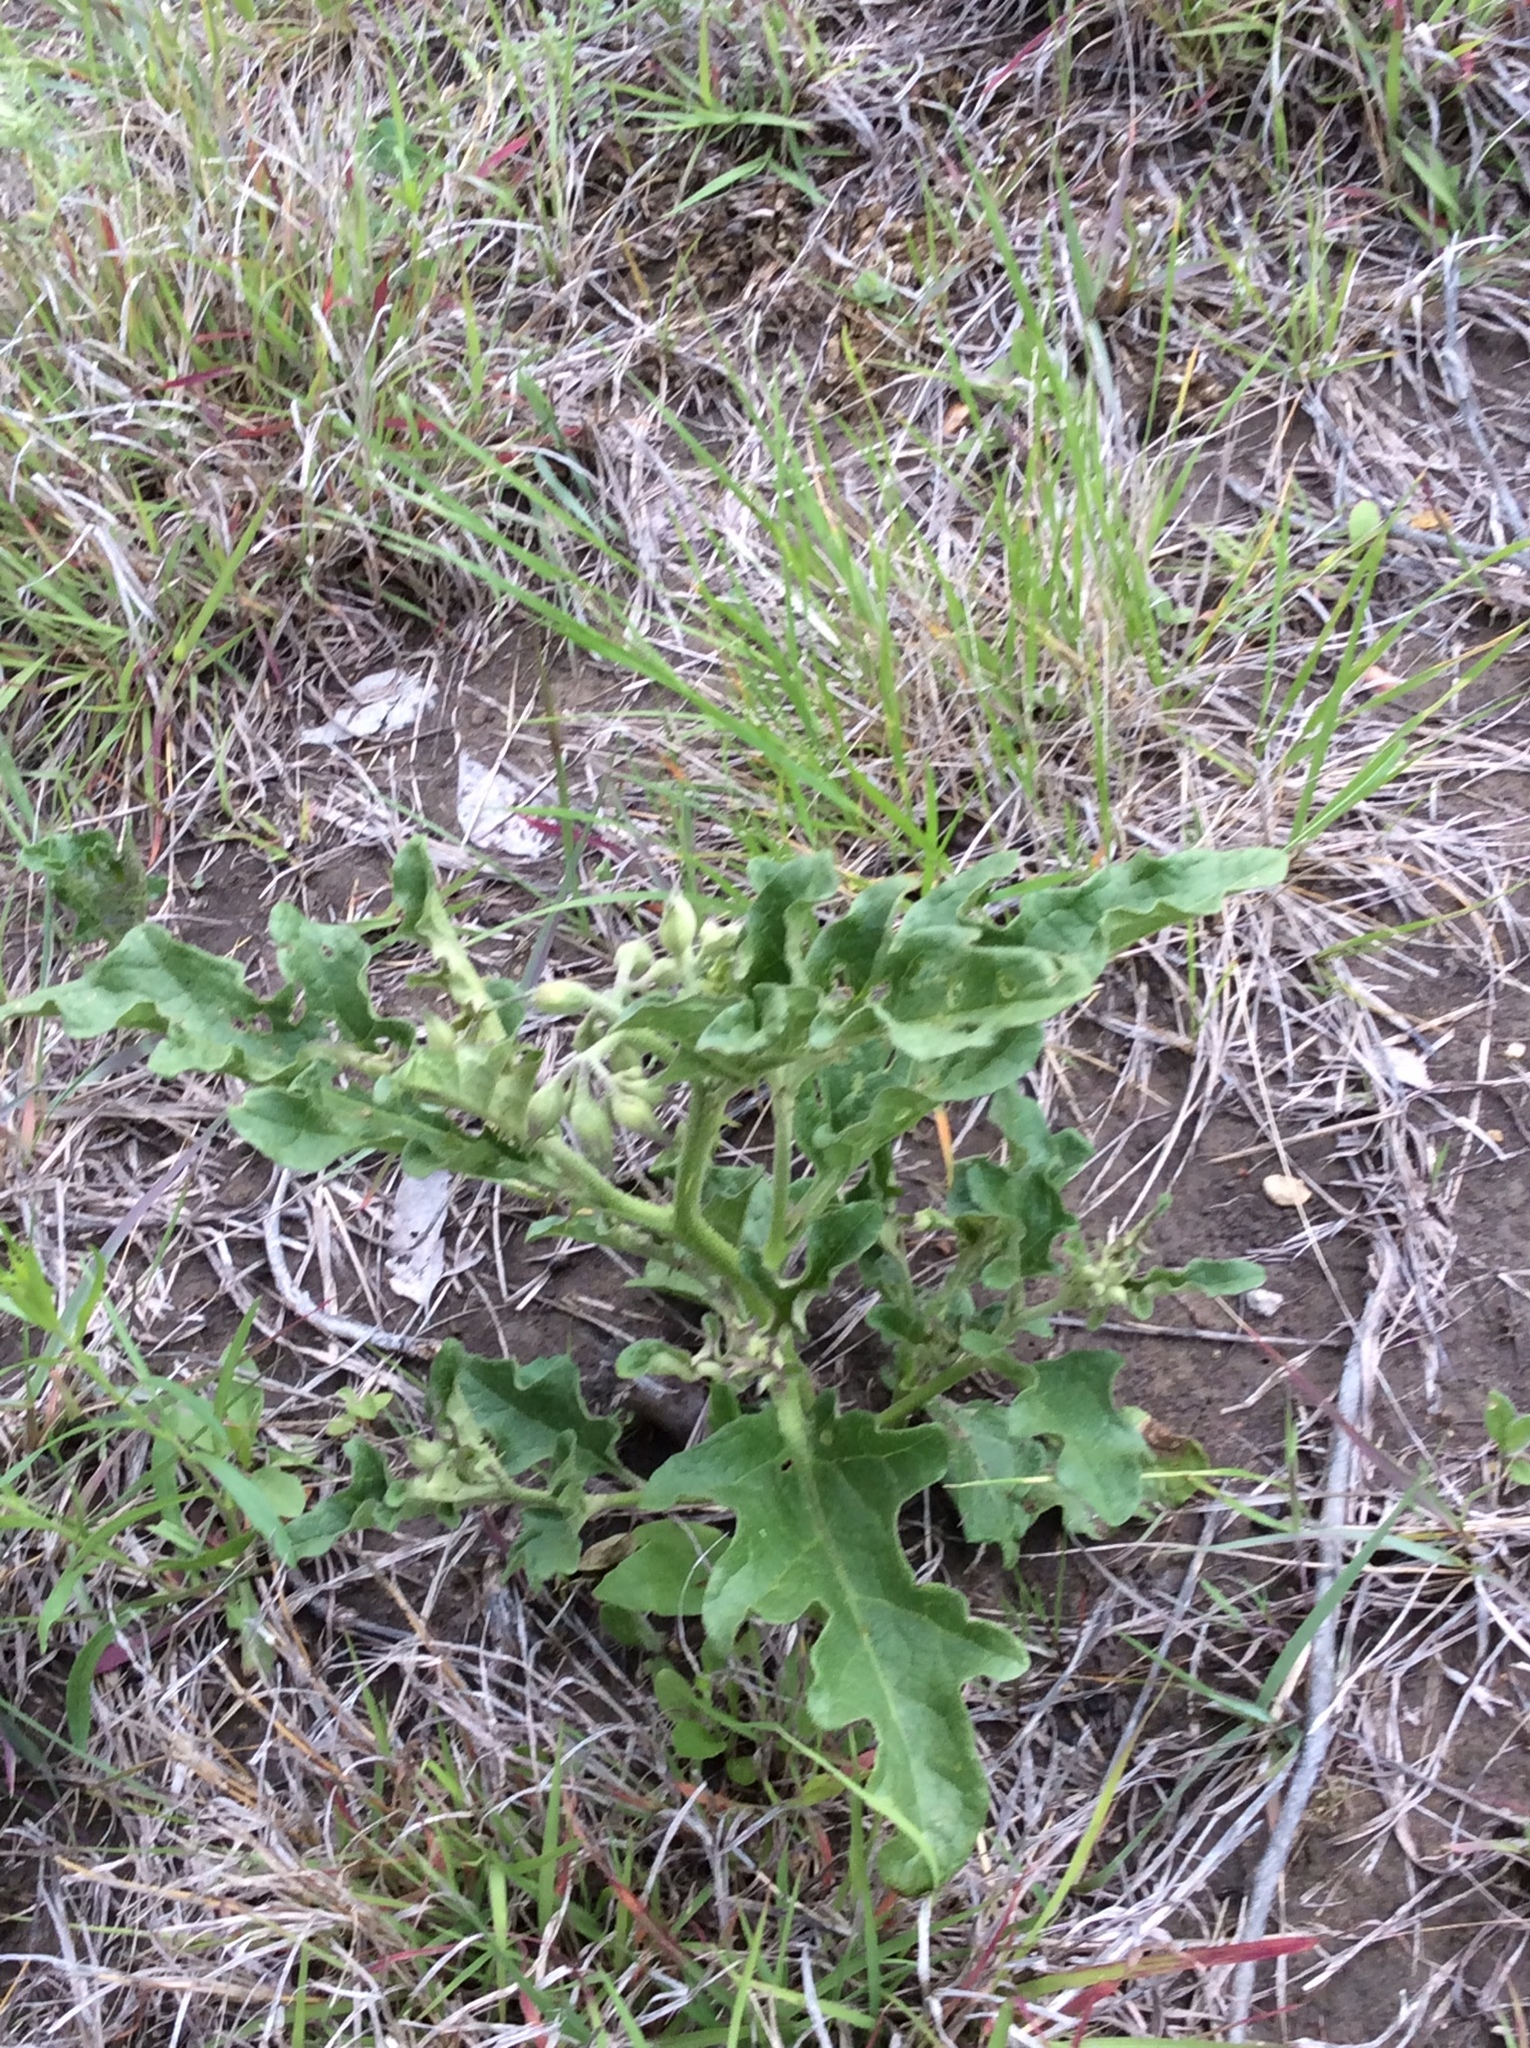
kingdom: Plantae
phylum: Tracheophyta
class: Magnoliopsida
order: Solanales
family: Solanaceae
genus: Solanum
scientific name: Solanum dimidiatum
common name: Carolina horse-nettle
